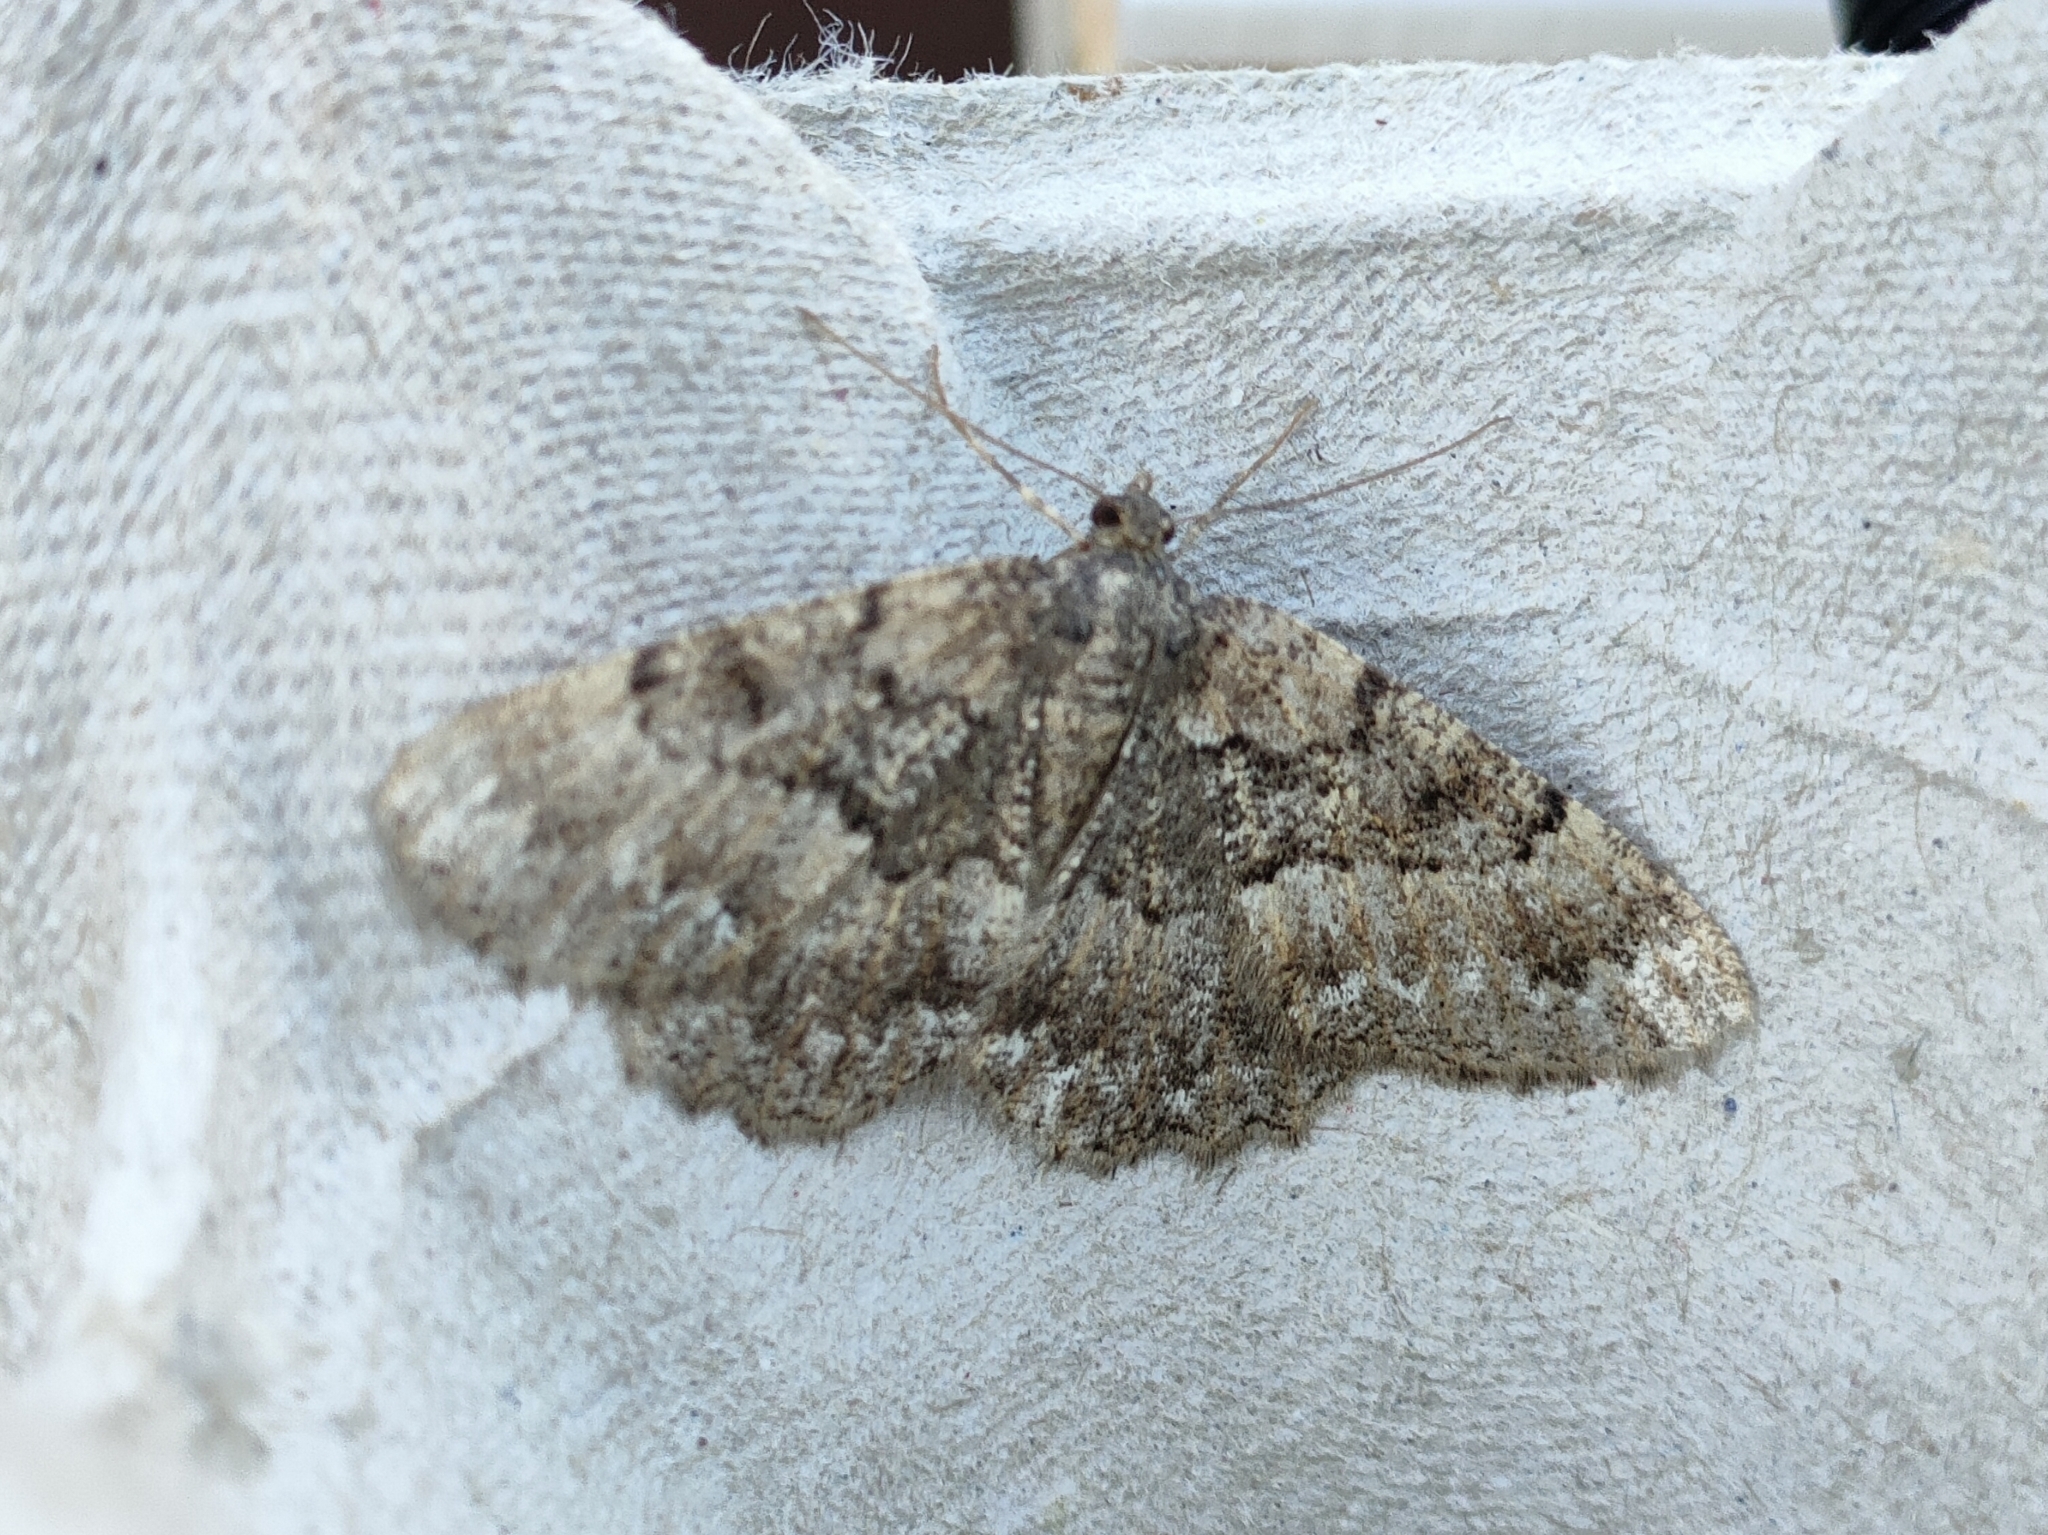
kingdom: Animalia
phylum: Arthropoda
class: Insecta
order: Lepidoptera
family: Geometridae
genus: Selidosema
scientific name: Selidosema taeniolaria
